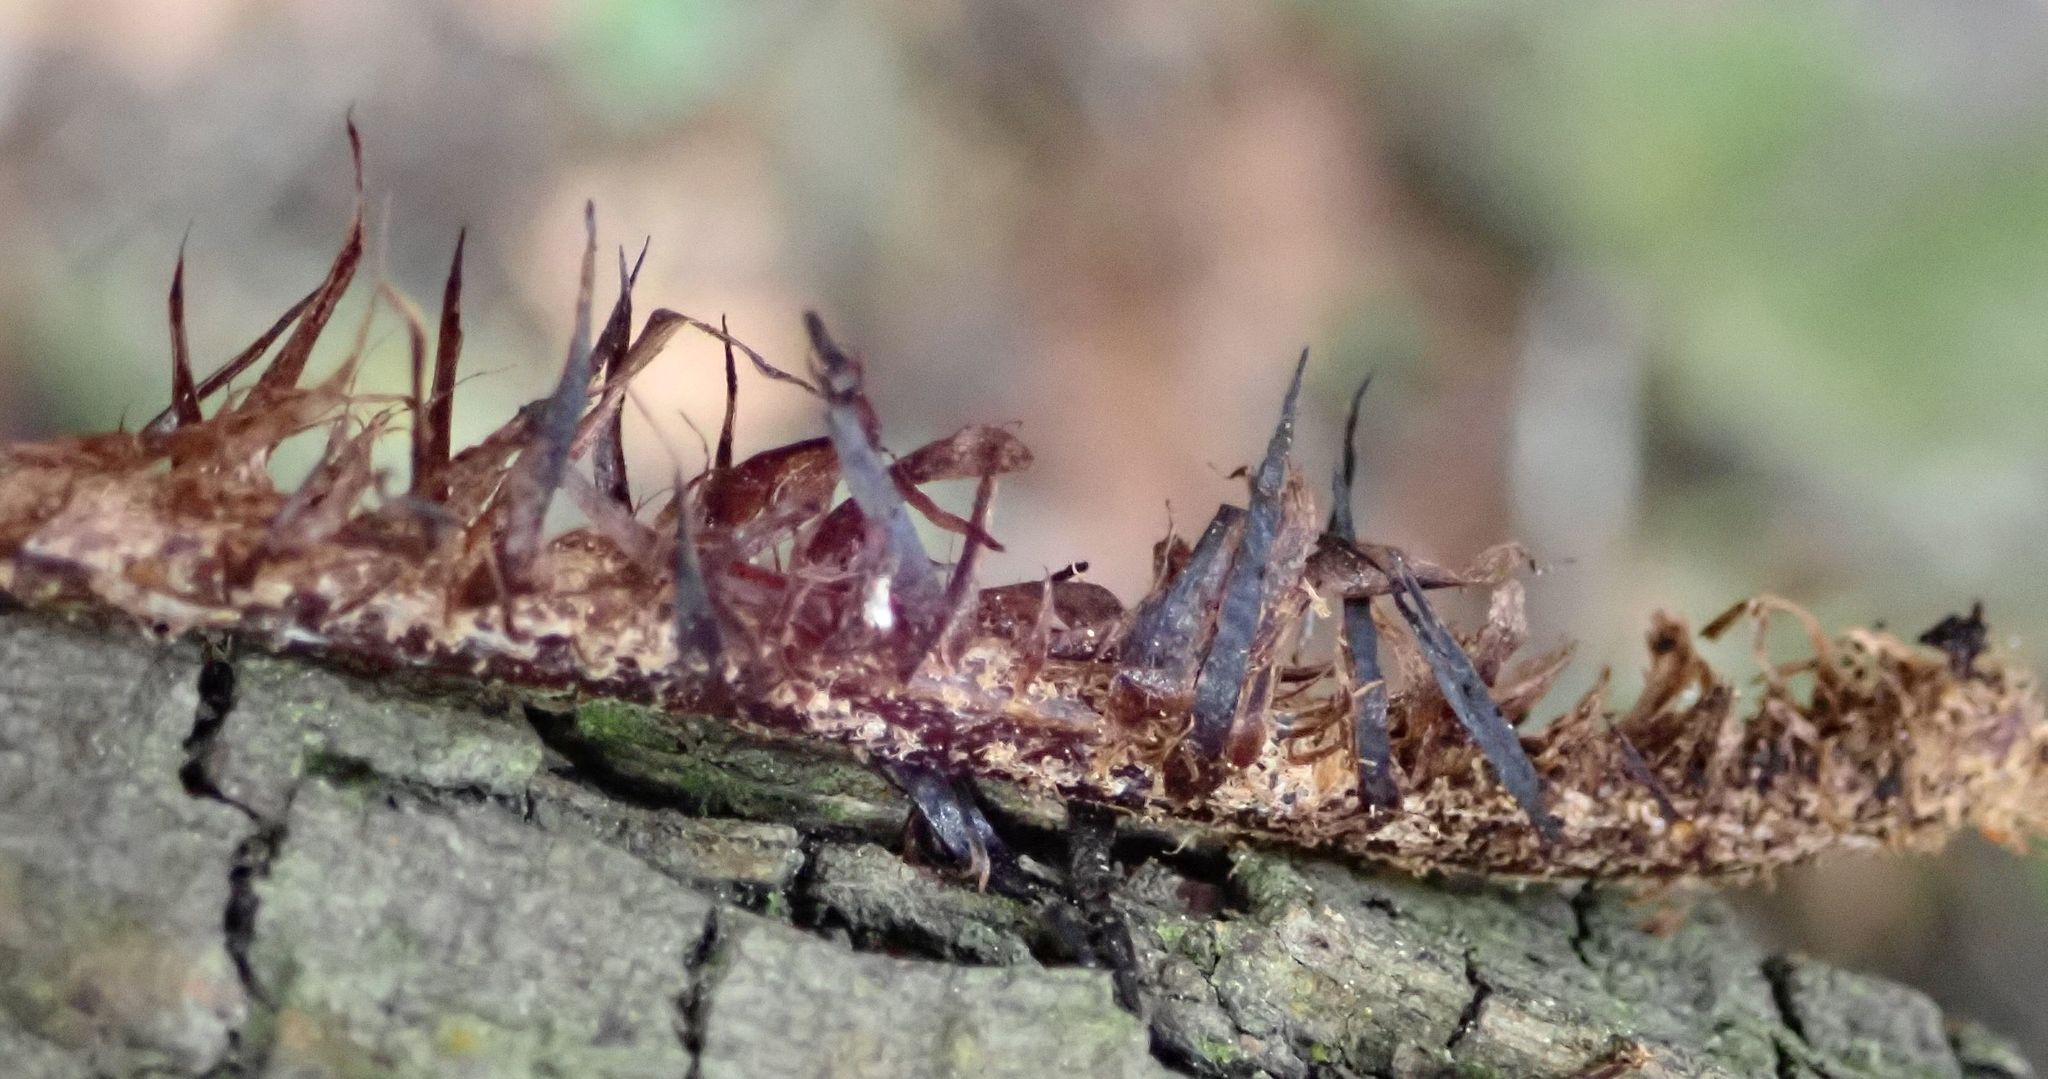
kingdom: Plantae
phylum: Tracheophyta
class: Polypodiopsida
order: Polypodiales
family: Dryopteridaceae
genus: Polystichum
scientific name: Polystichum neozelandicum
